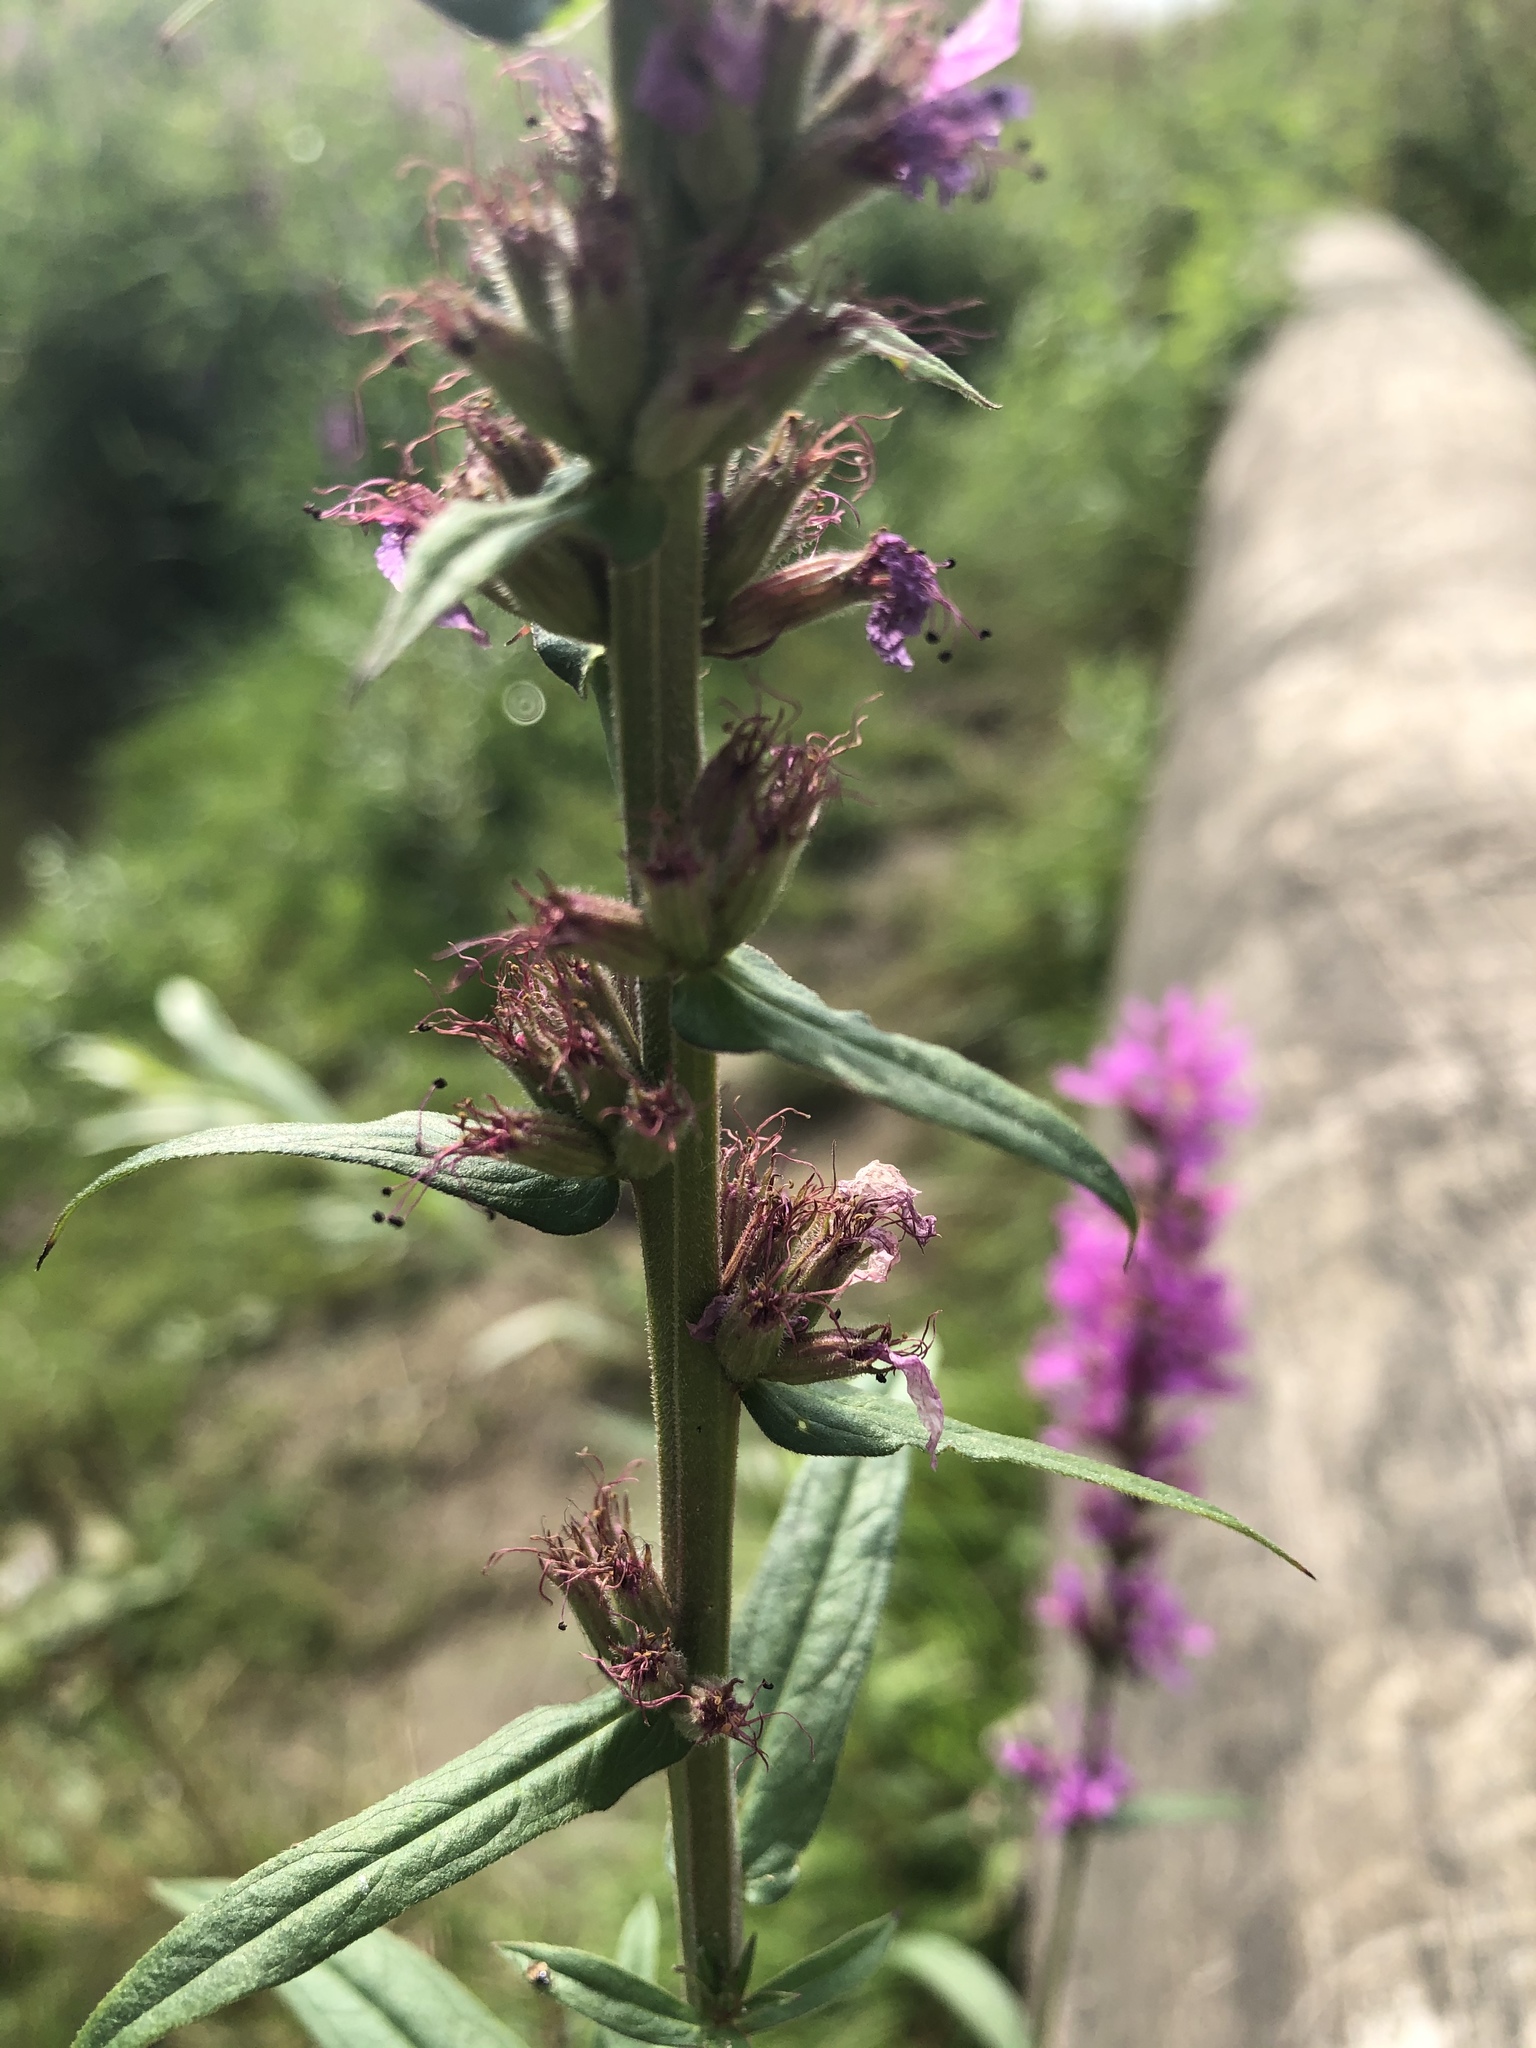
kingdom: Plantae
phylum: Tracheophyta
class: Magnoliopsida
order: Myrtales
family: Lythraceae
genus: Lythrum
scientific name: Lythrum salicaria
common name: Purple loosestrife
